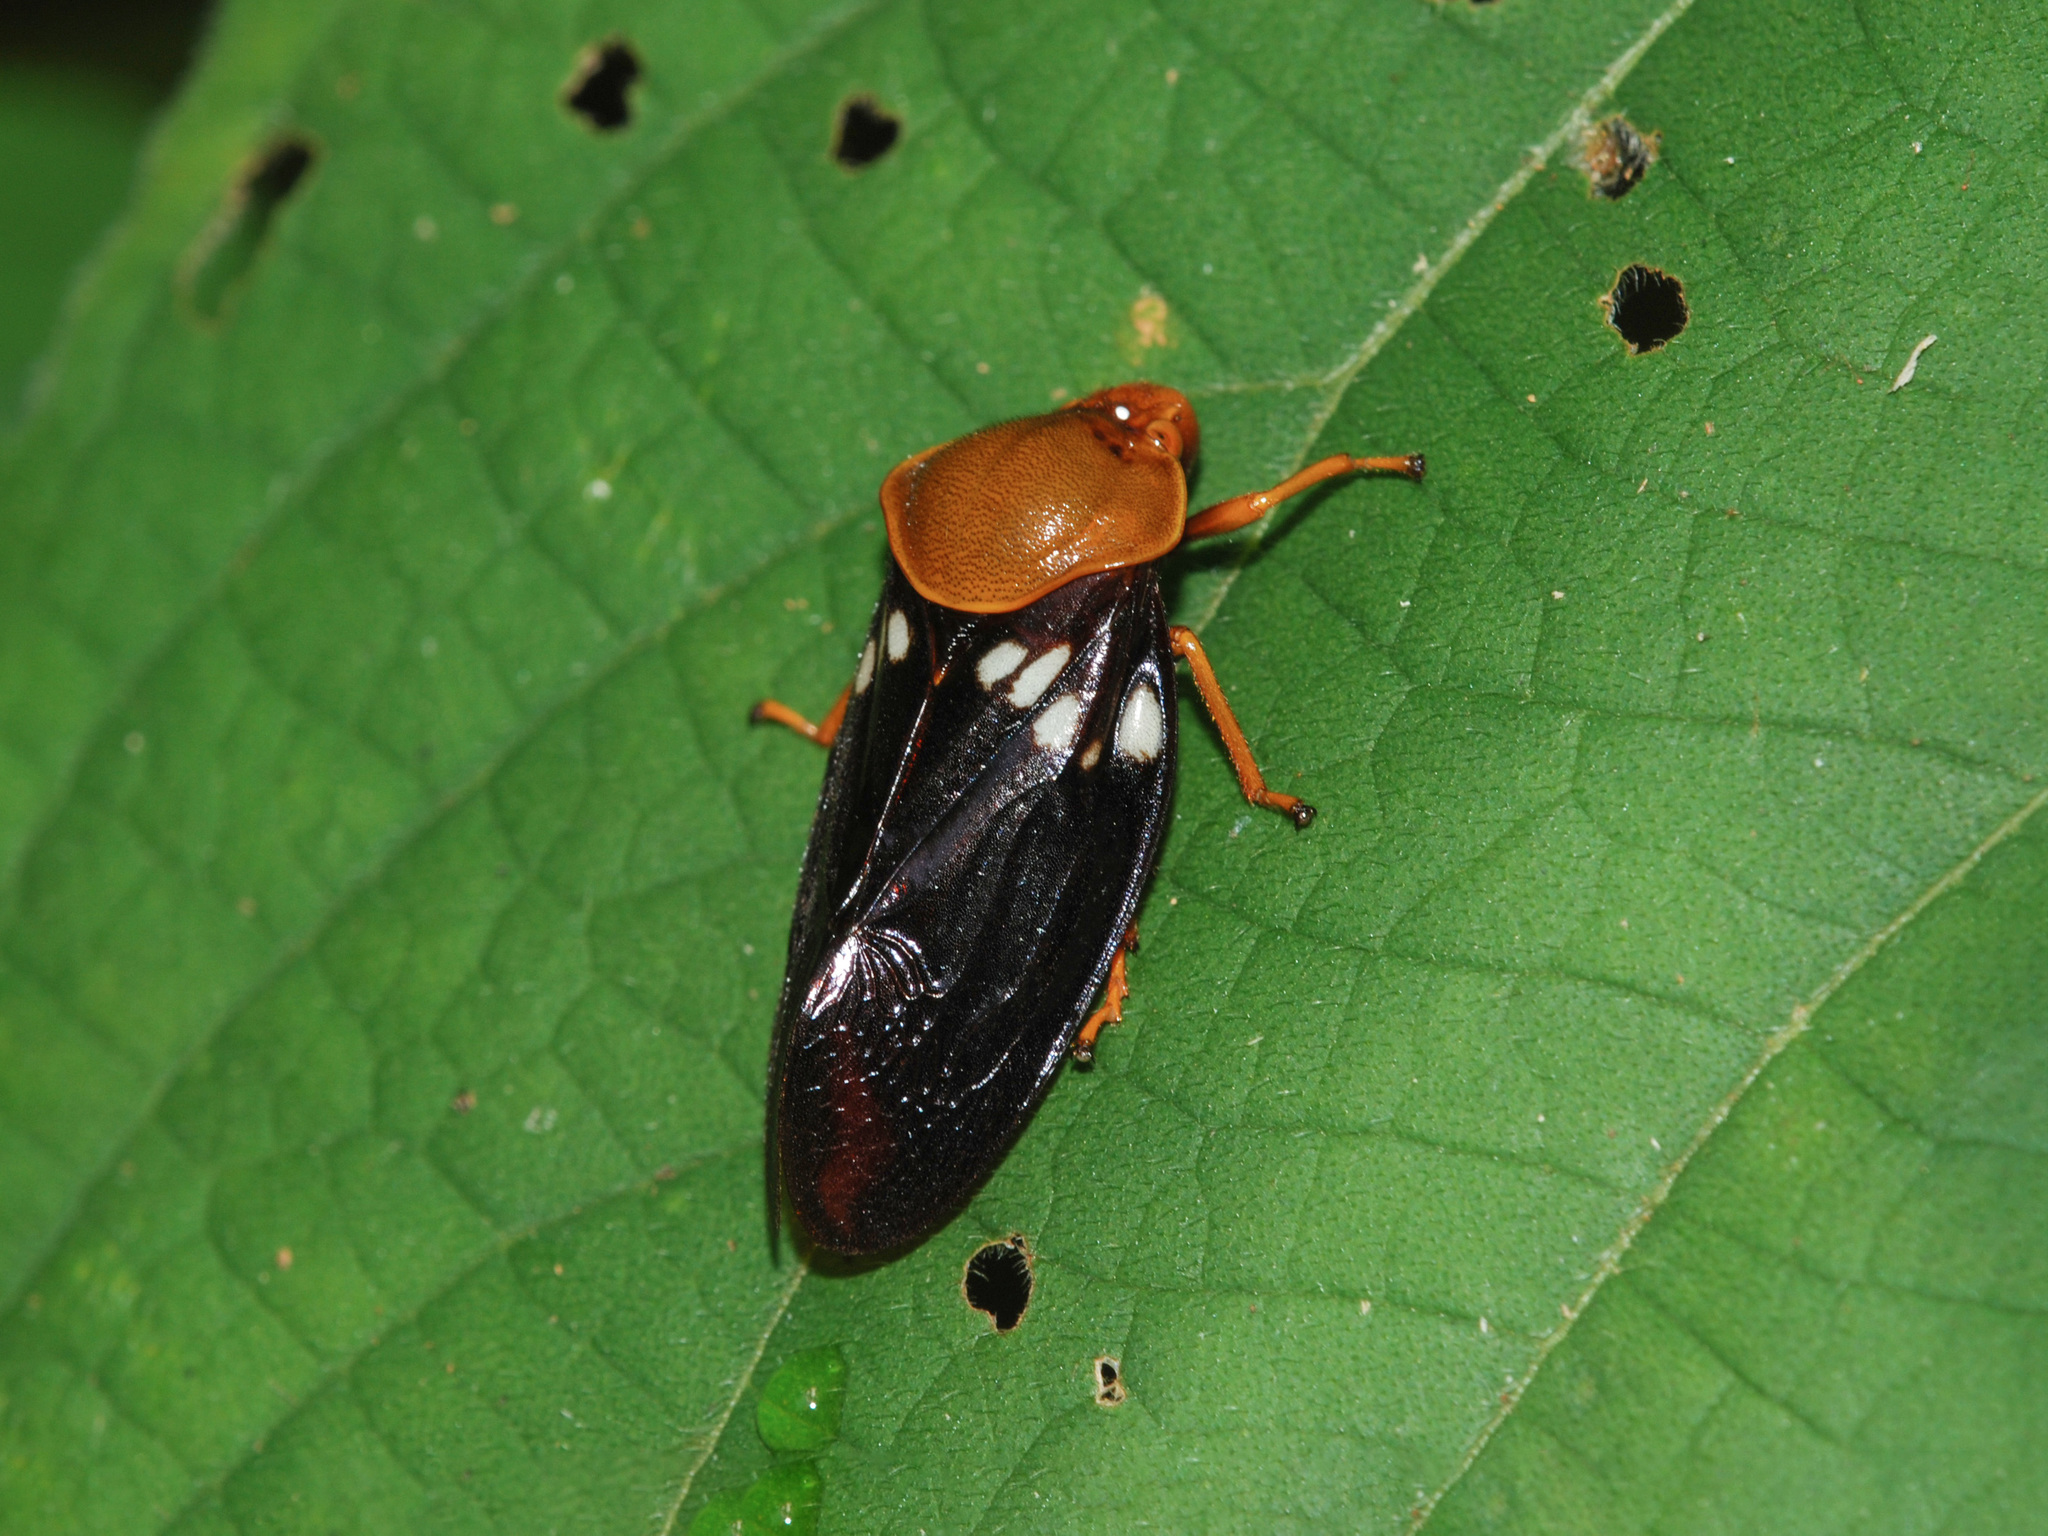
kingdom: Animalia
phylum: Arthropoda
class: Insecta
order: Hemiptera
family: Cercopidae
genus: Suracarta
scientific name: Suracarta tricolor
